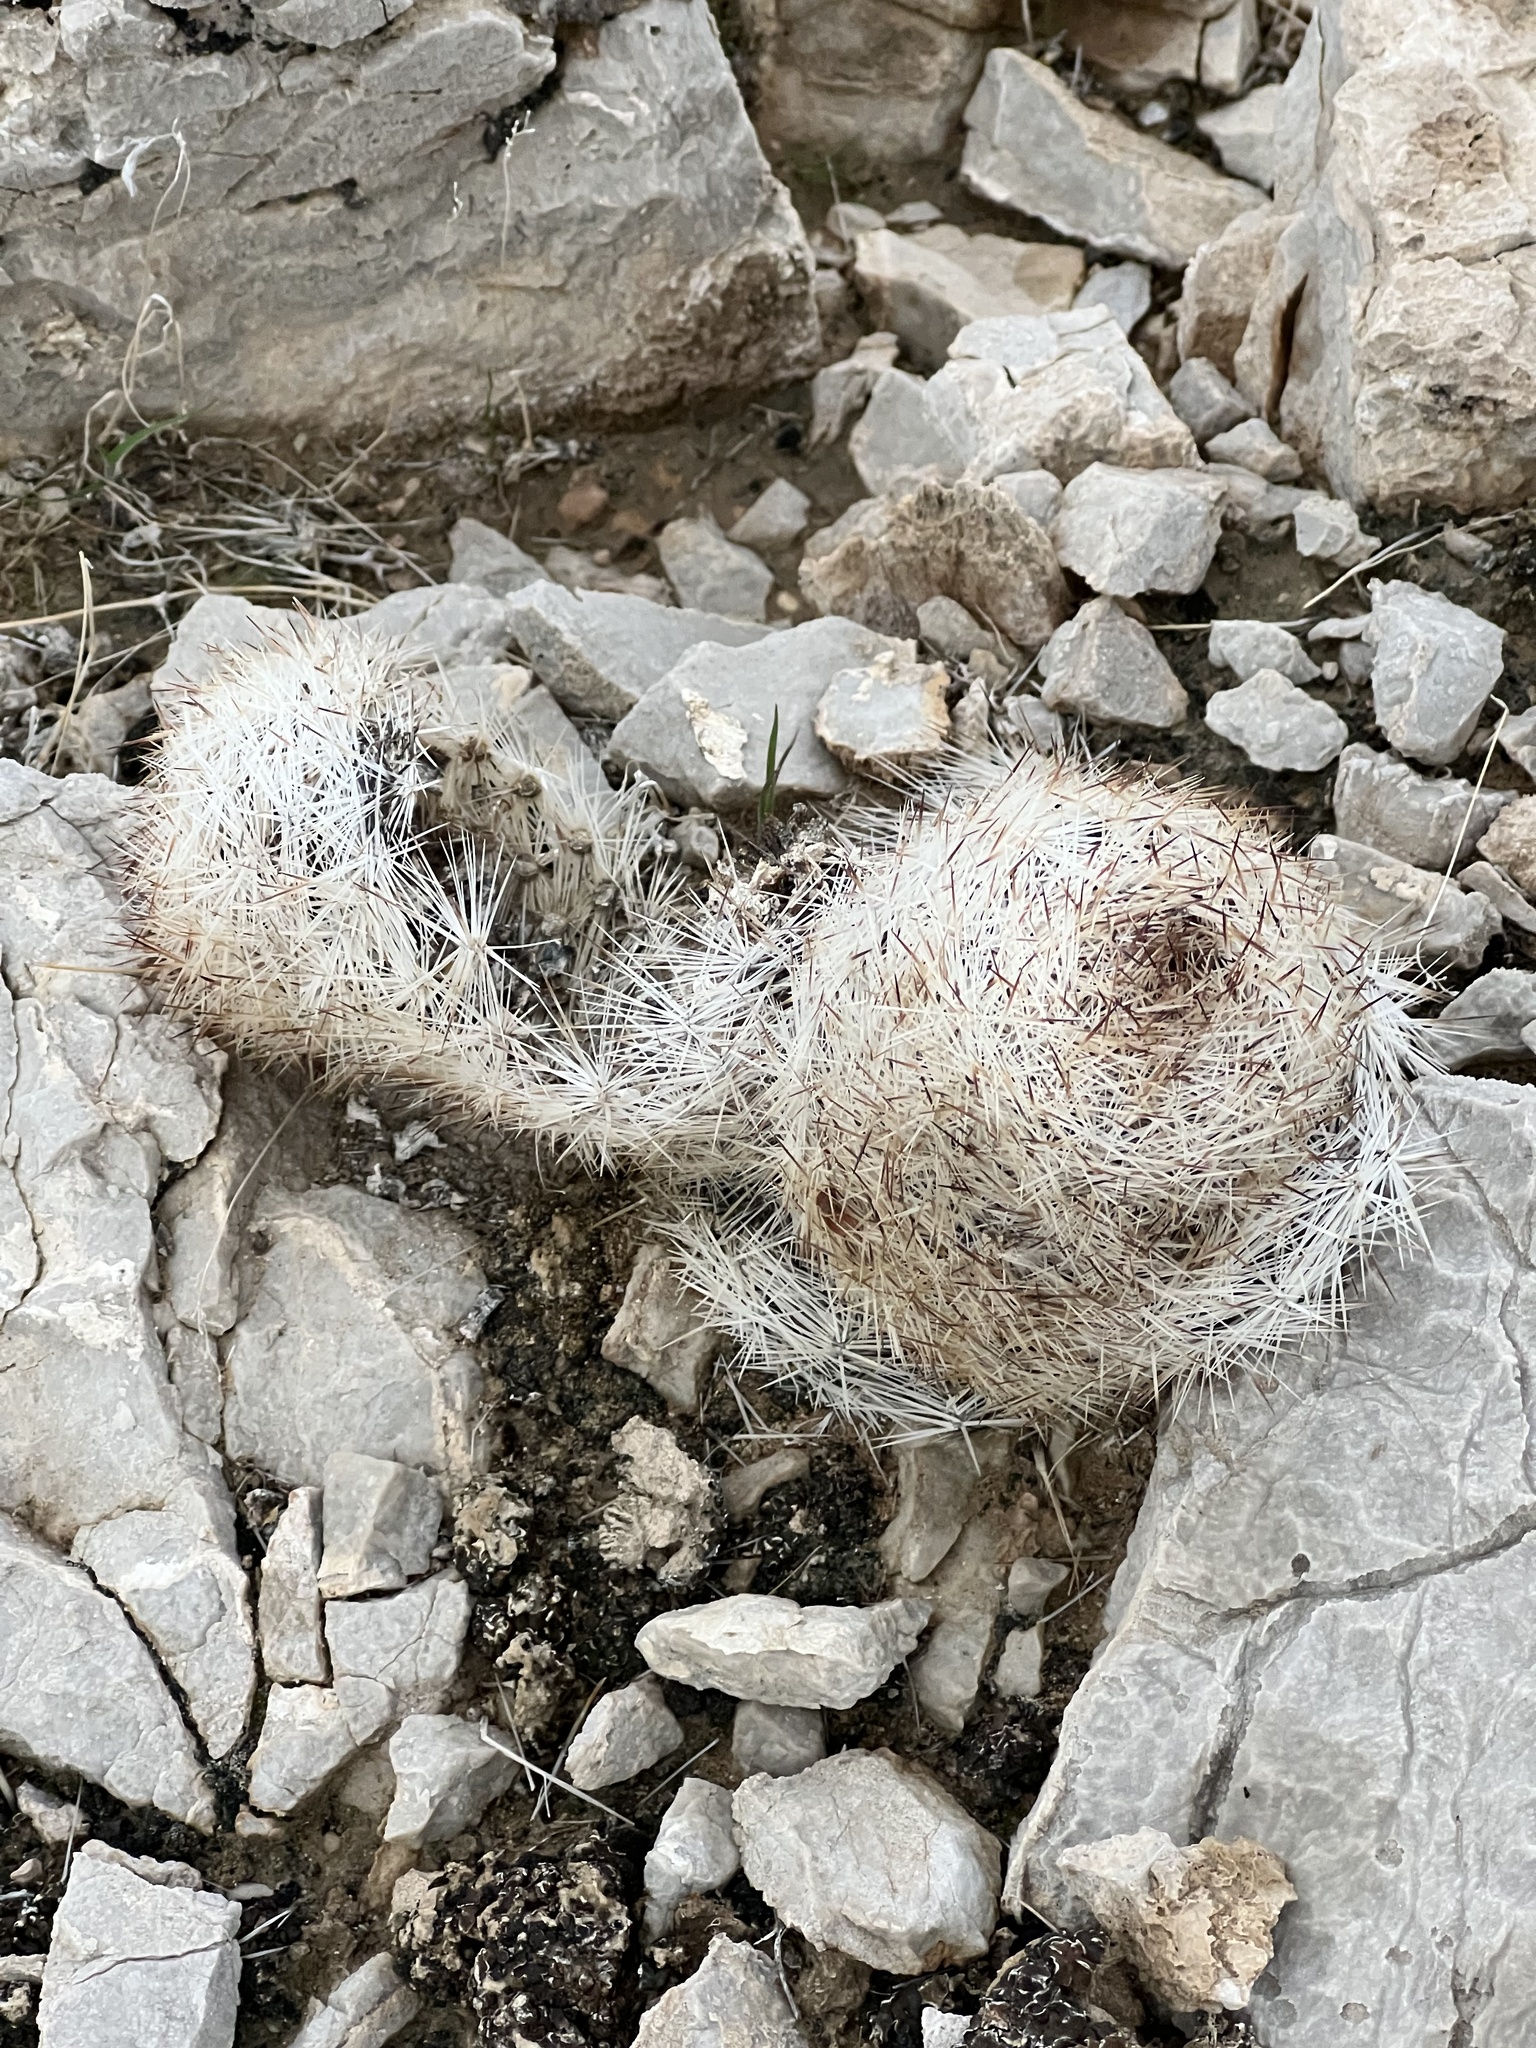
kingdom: Plantae
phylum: Tracheophyta
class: Magnoliopsida
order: Caryophyllales
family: Cactaceae
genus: Pelecyphora
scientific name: Pelecyphora dasyacantha
